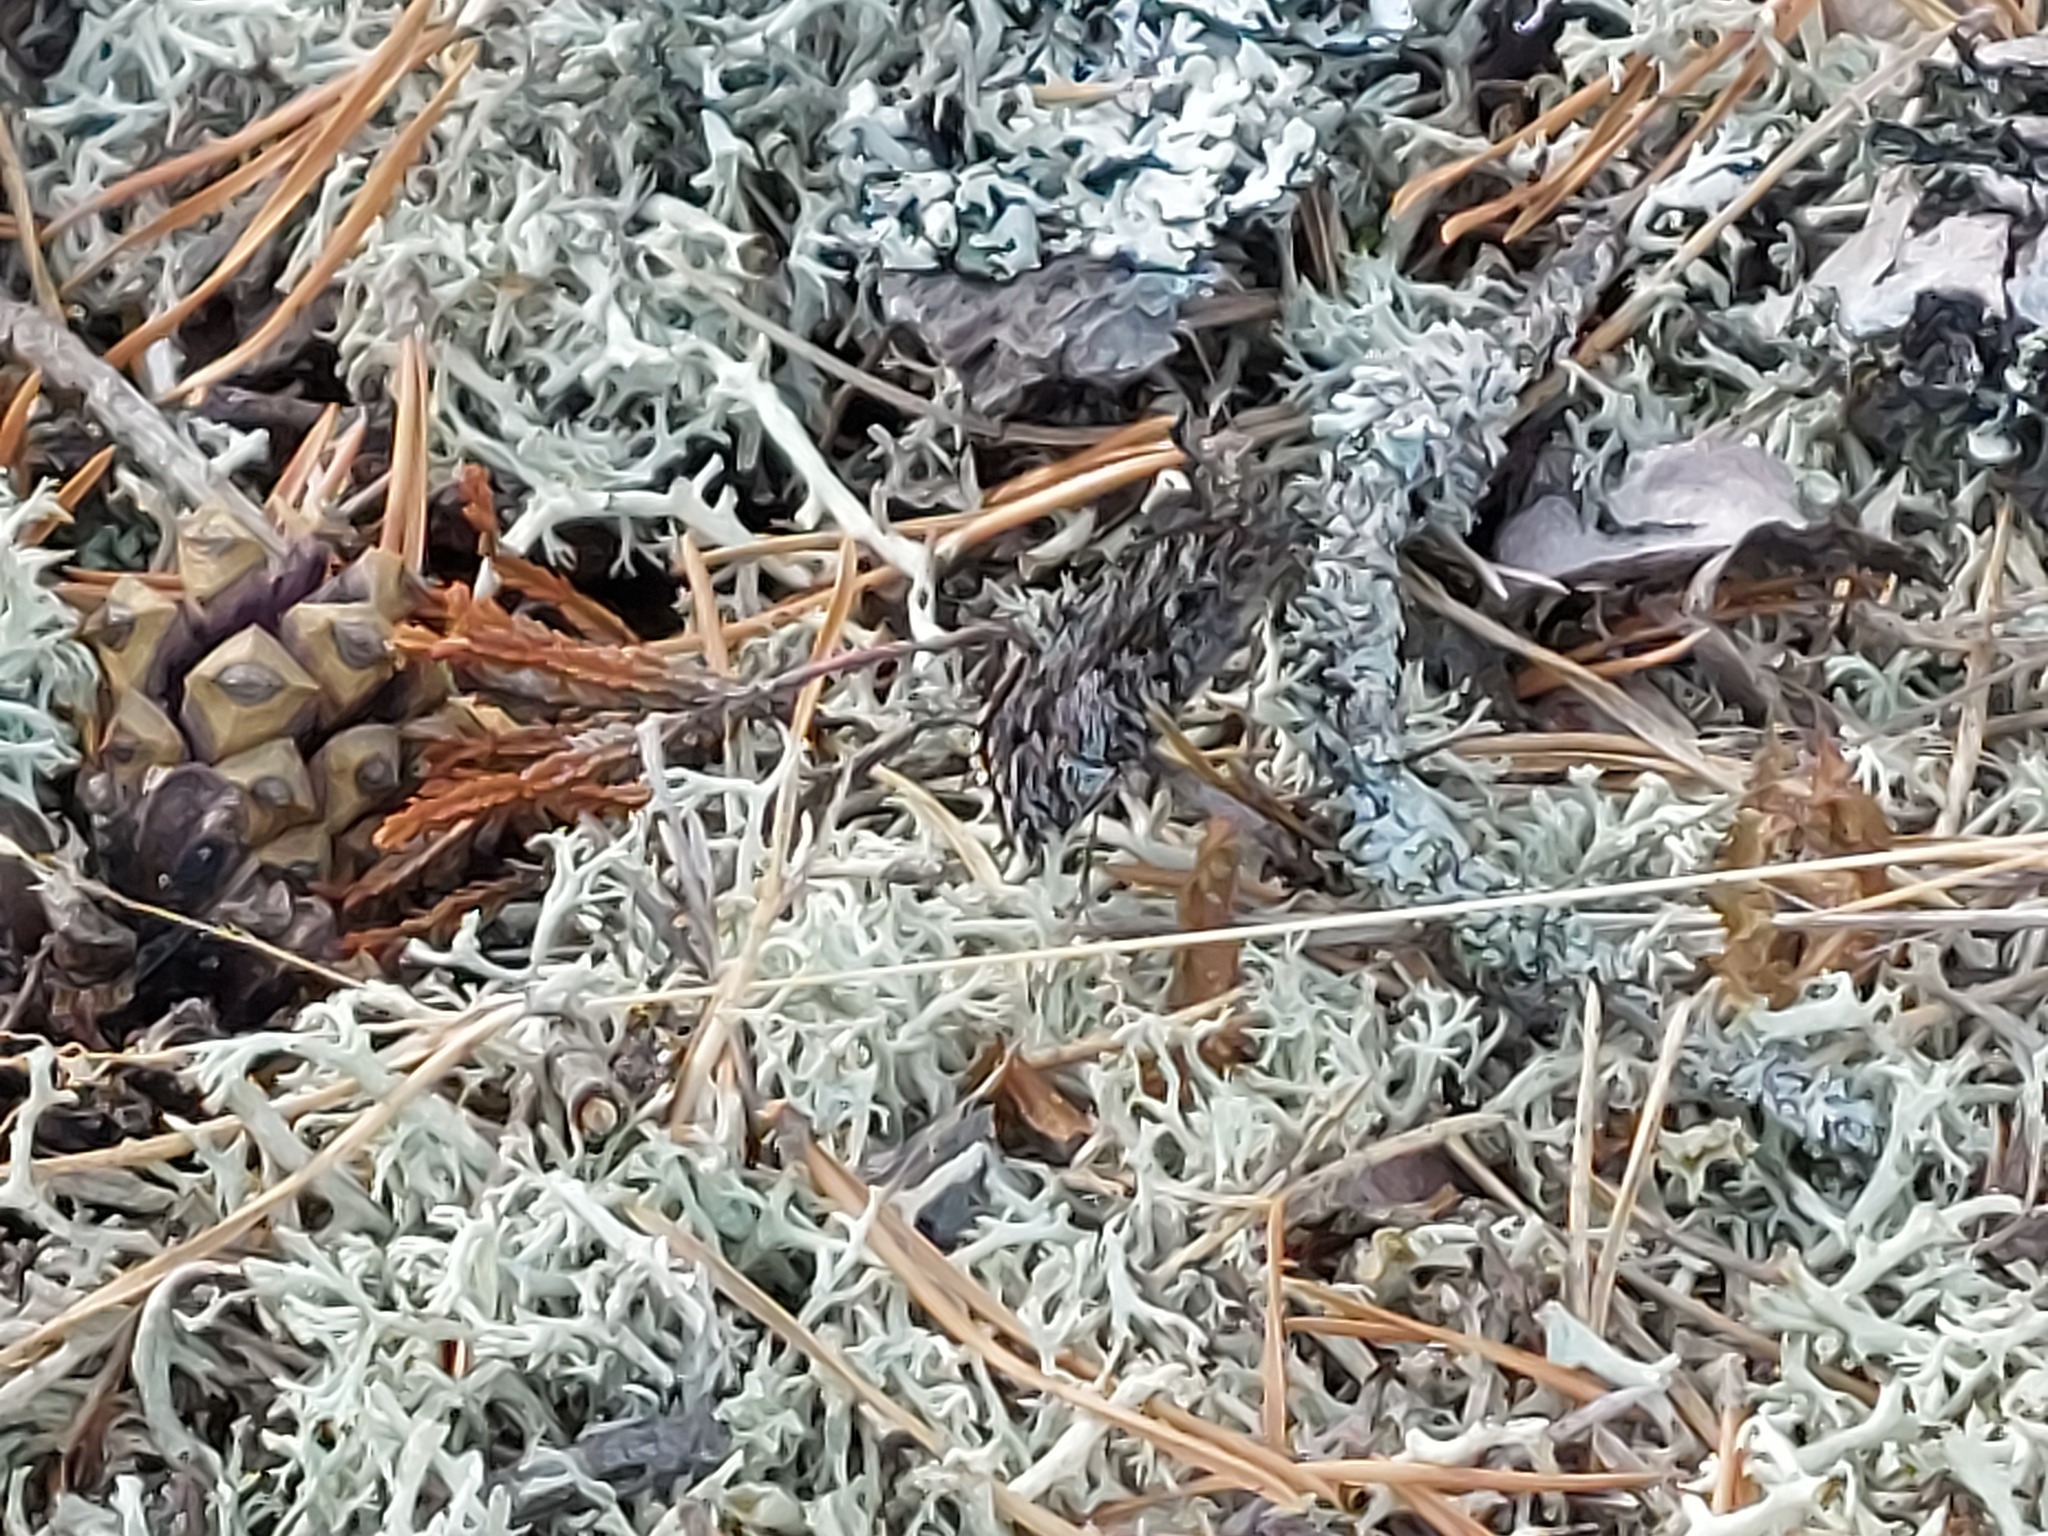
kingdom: Animalia
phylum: Arthropoda
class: Insecta
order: Lepidoptera
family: Nymphalidae
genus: Hipparchia
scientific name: Hipparchia semele
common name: Grayling
